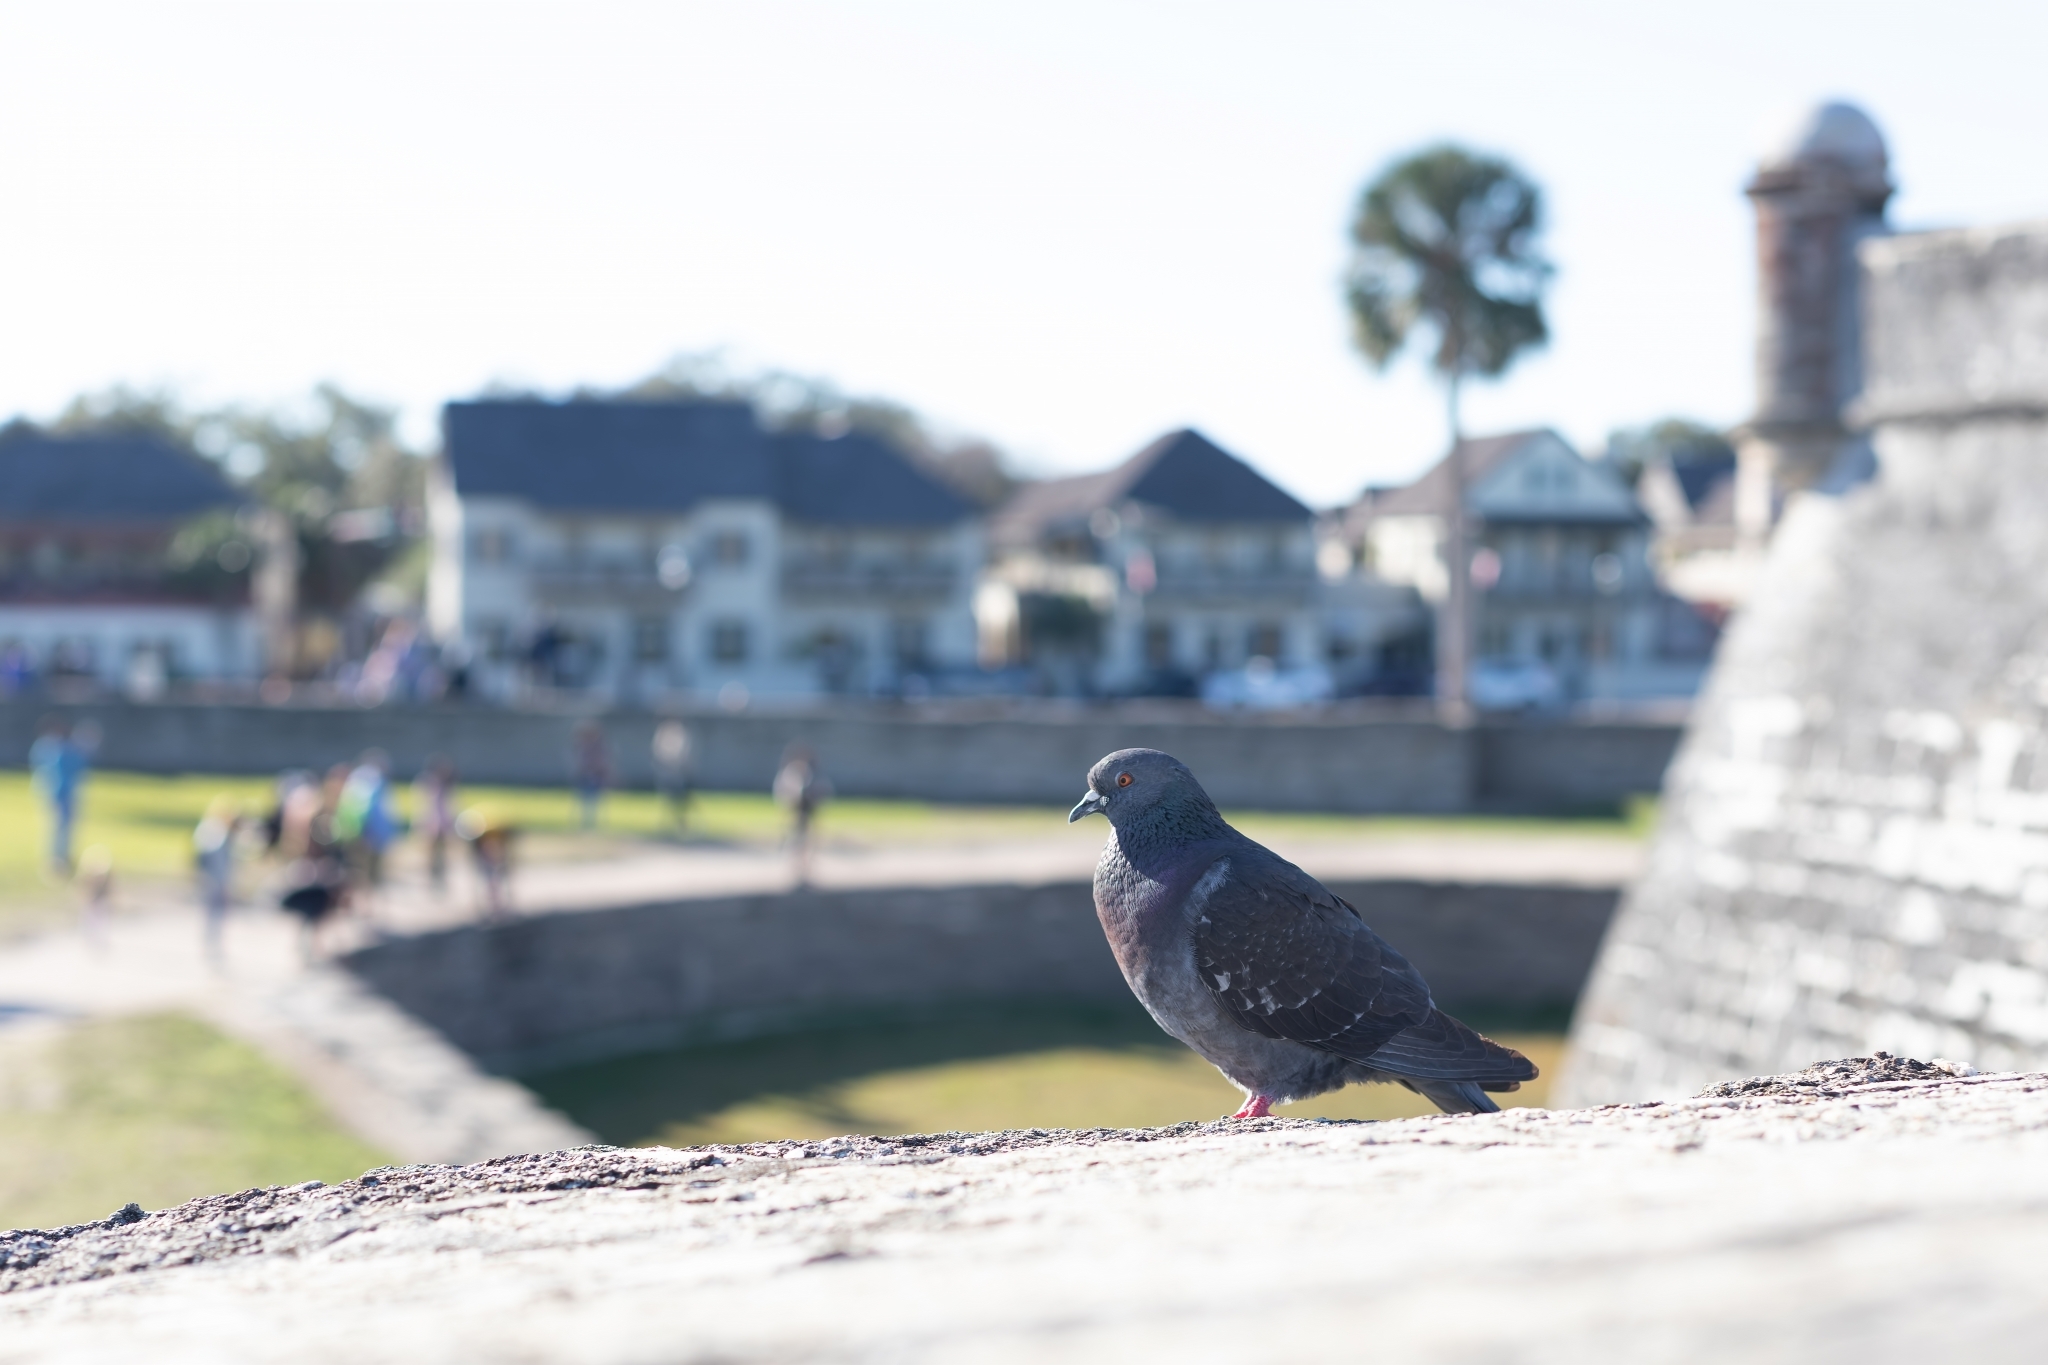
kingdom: Animalia
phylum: Chordata
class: Aves
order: Columbiformes
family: Columbidae
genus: Columba
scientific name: Columba livia
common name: Rock pigeon
